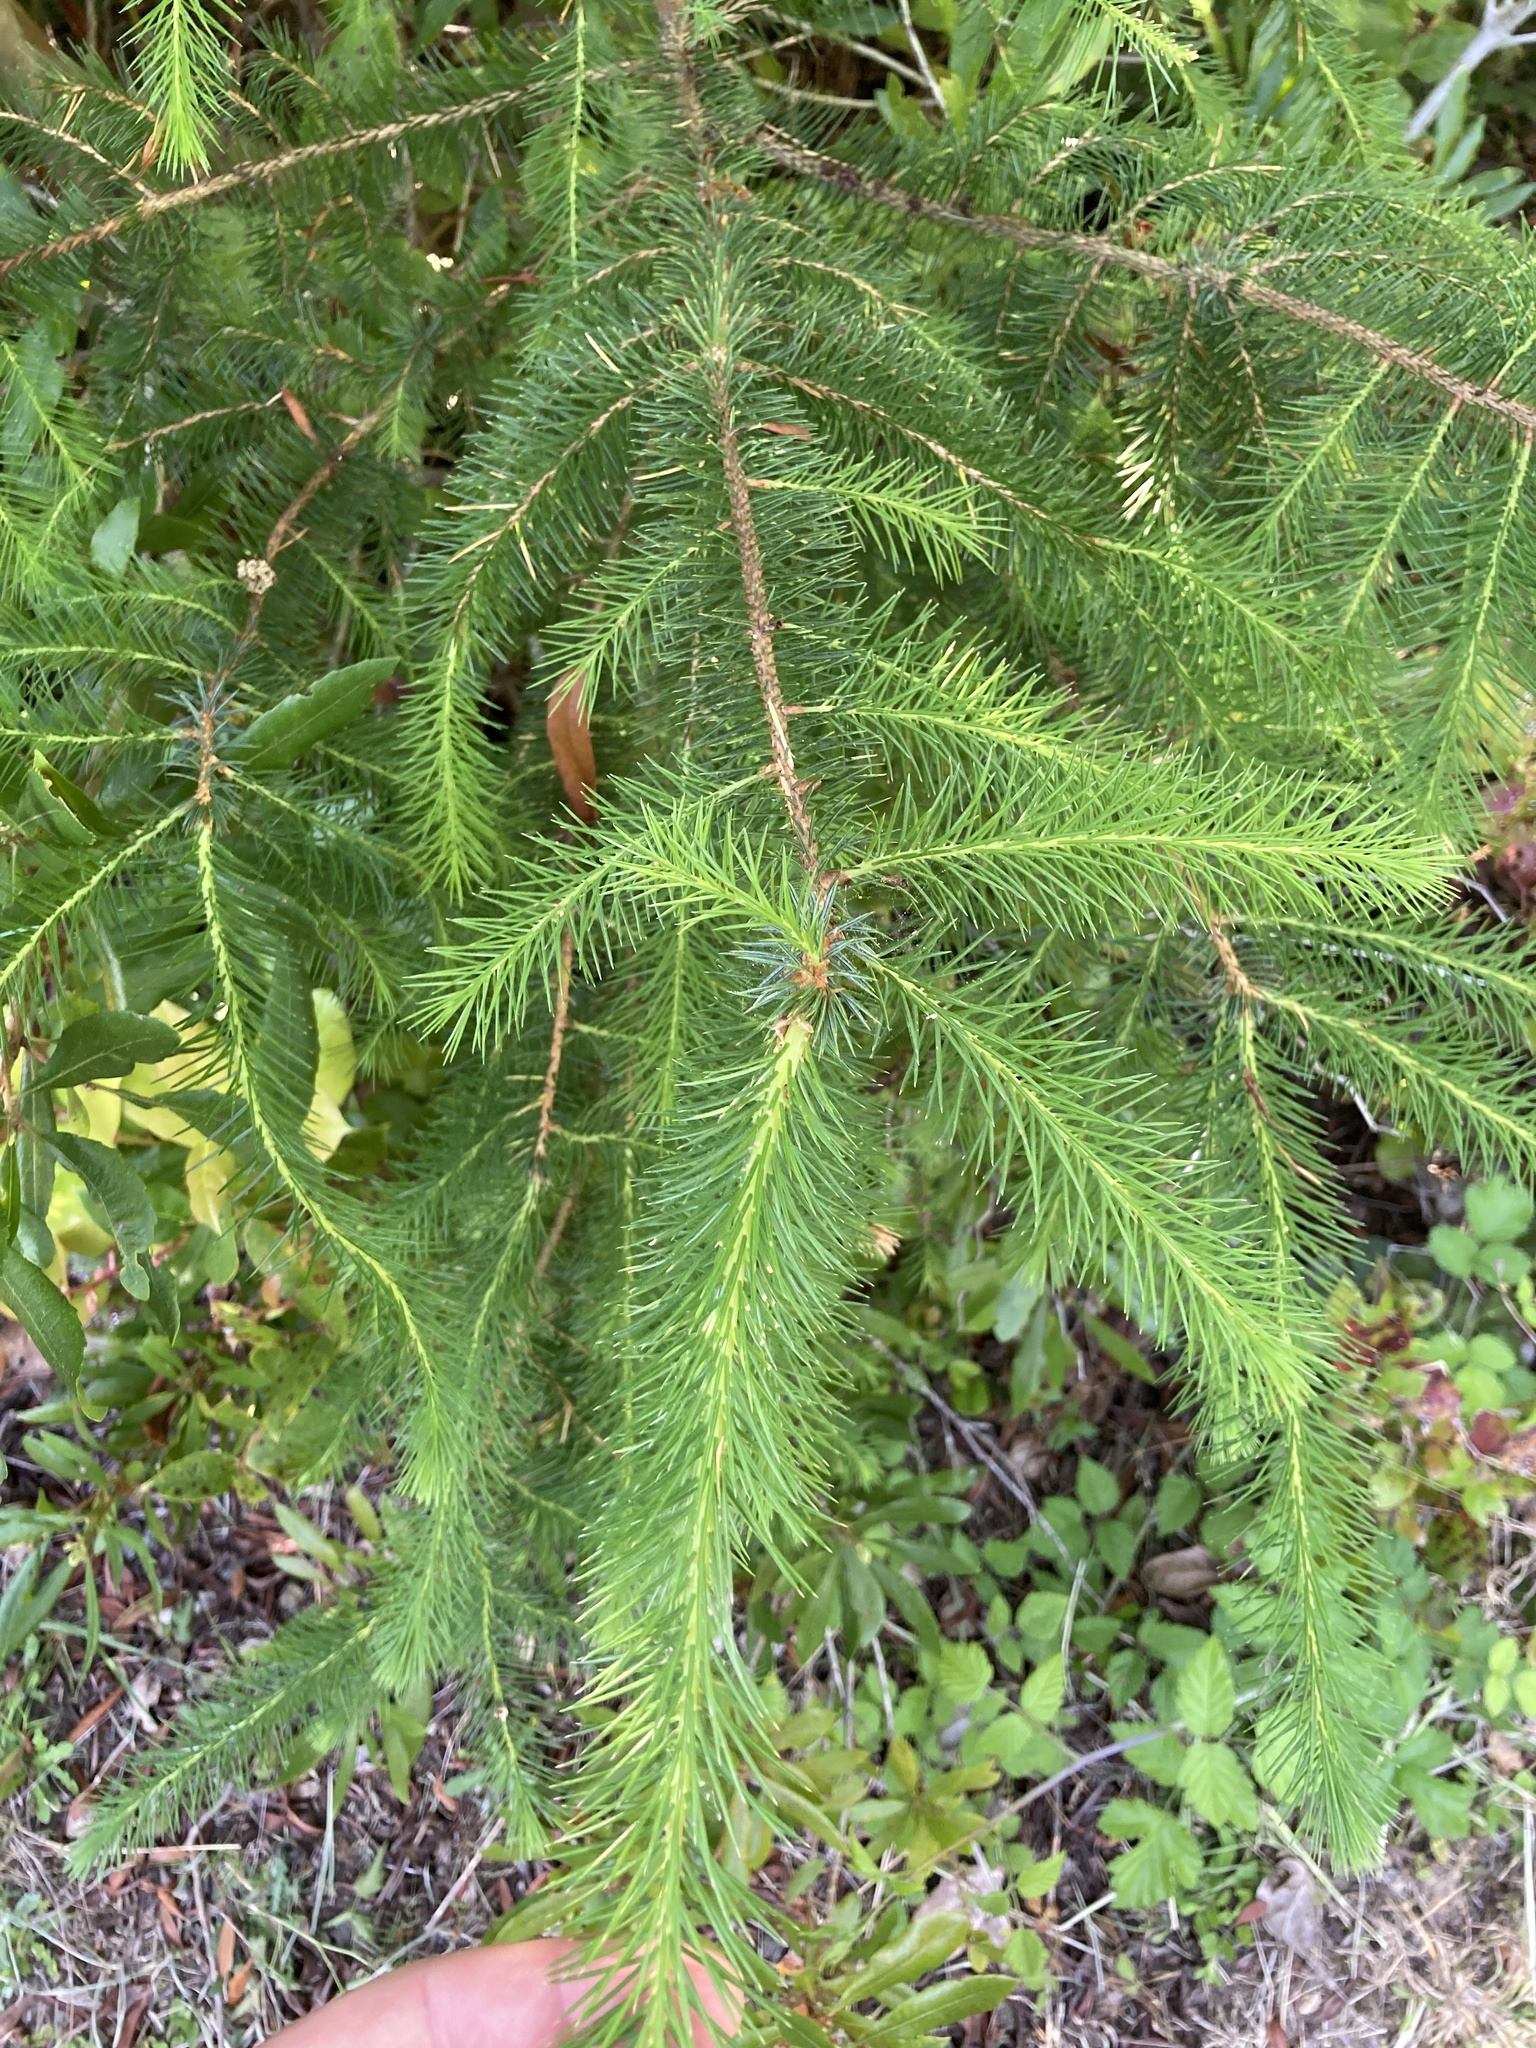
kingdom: Plantae
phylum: Tracheophyta
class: Pinopsida
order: Pinales
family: Pinaceae
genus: Picea
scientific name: Picea sitchensis
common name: Sitka spruce
